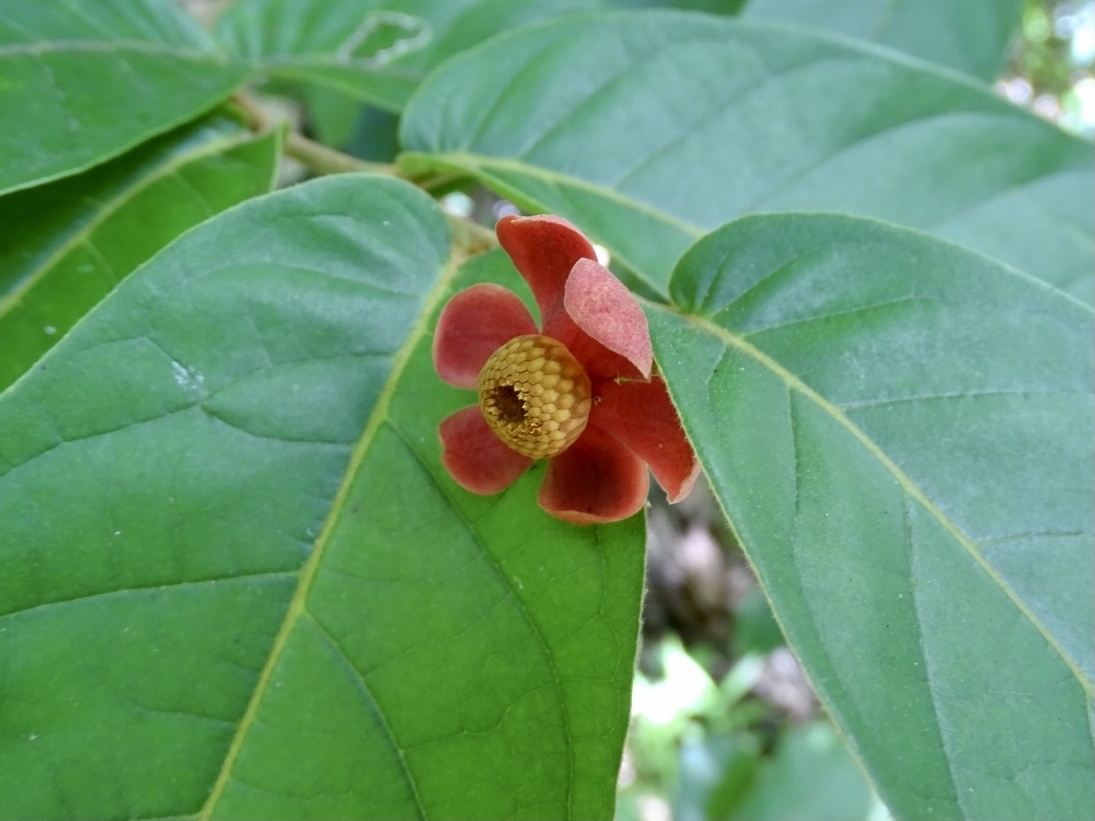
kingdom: Plantae
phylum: Tracheophyta
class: Magnoliopsida
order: Magnoliales
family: Annonaceae
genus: Uvaria
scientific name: Uvaria littoralis
